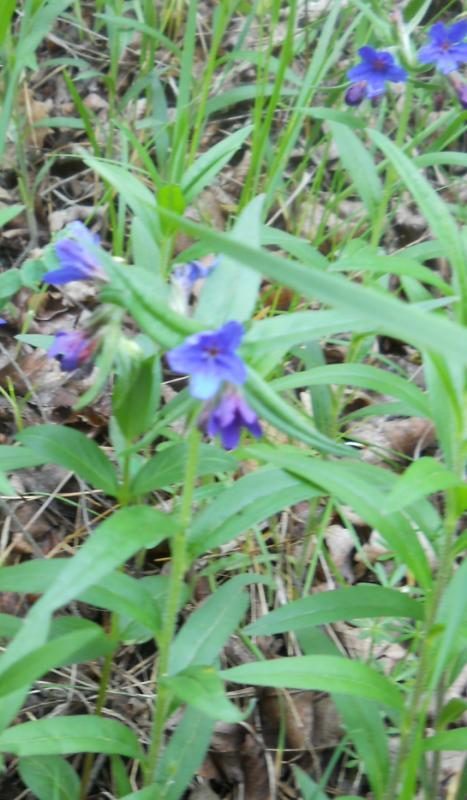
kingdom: Plantae
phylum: Tracheophyta
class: Magnoliopsida
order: Boraginales
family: Boraginaceae
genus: Aegonychon
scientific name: Aegonychon purpurocaeruleum
